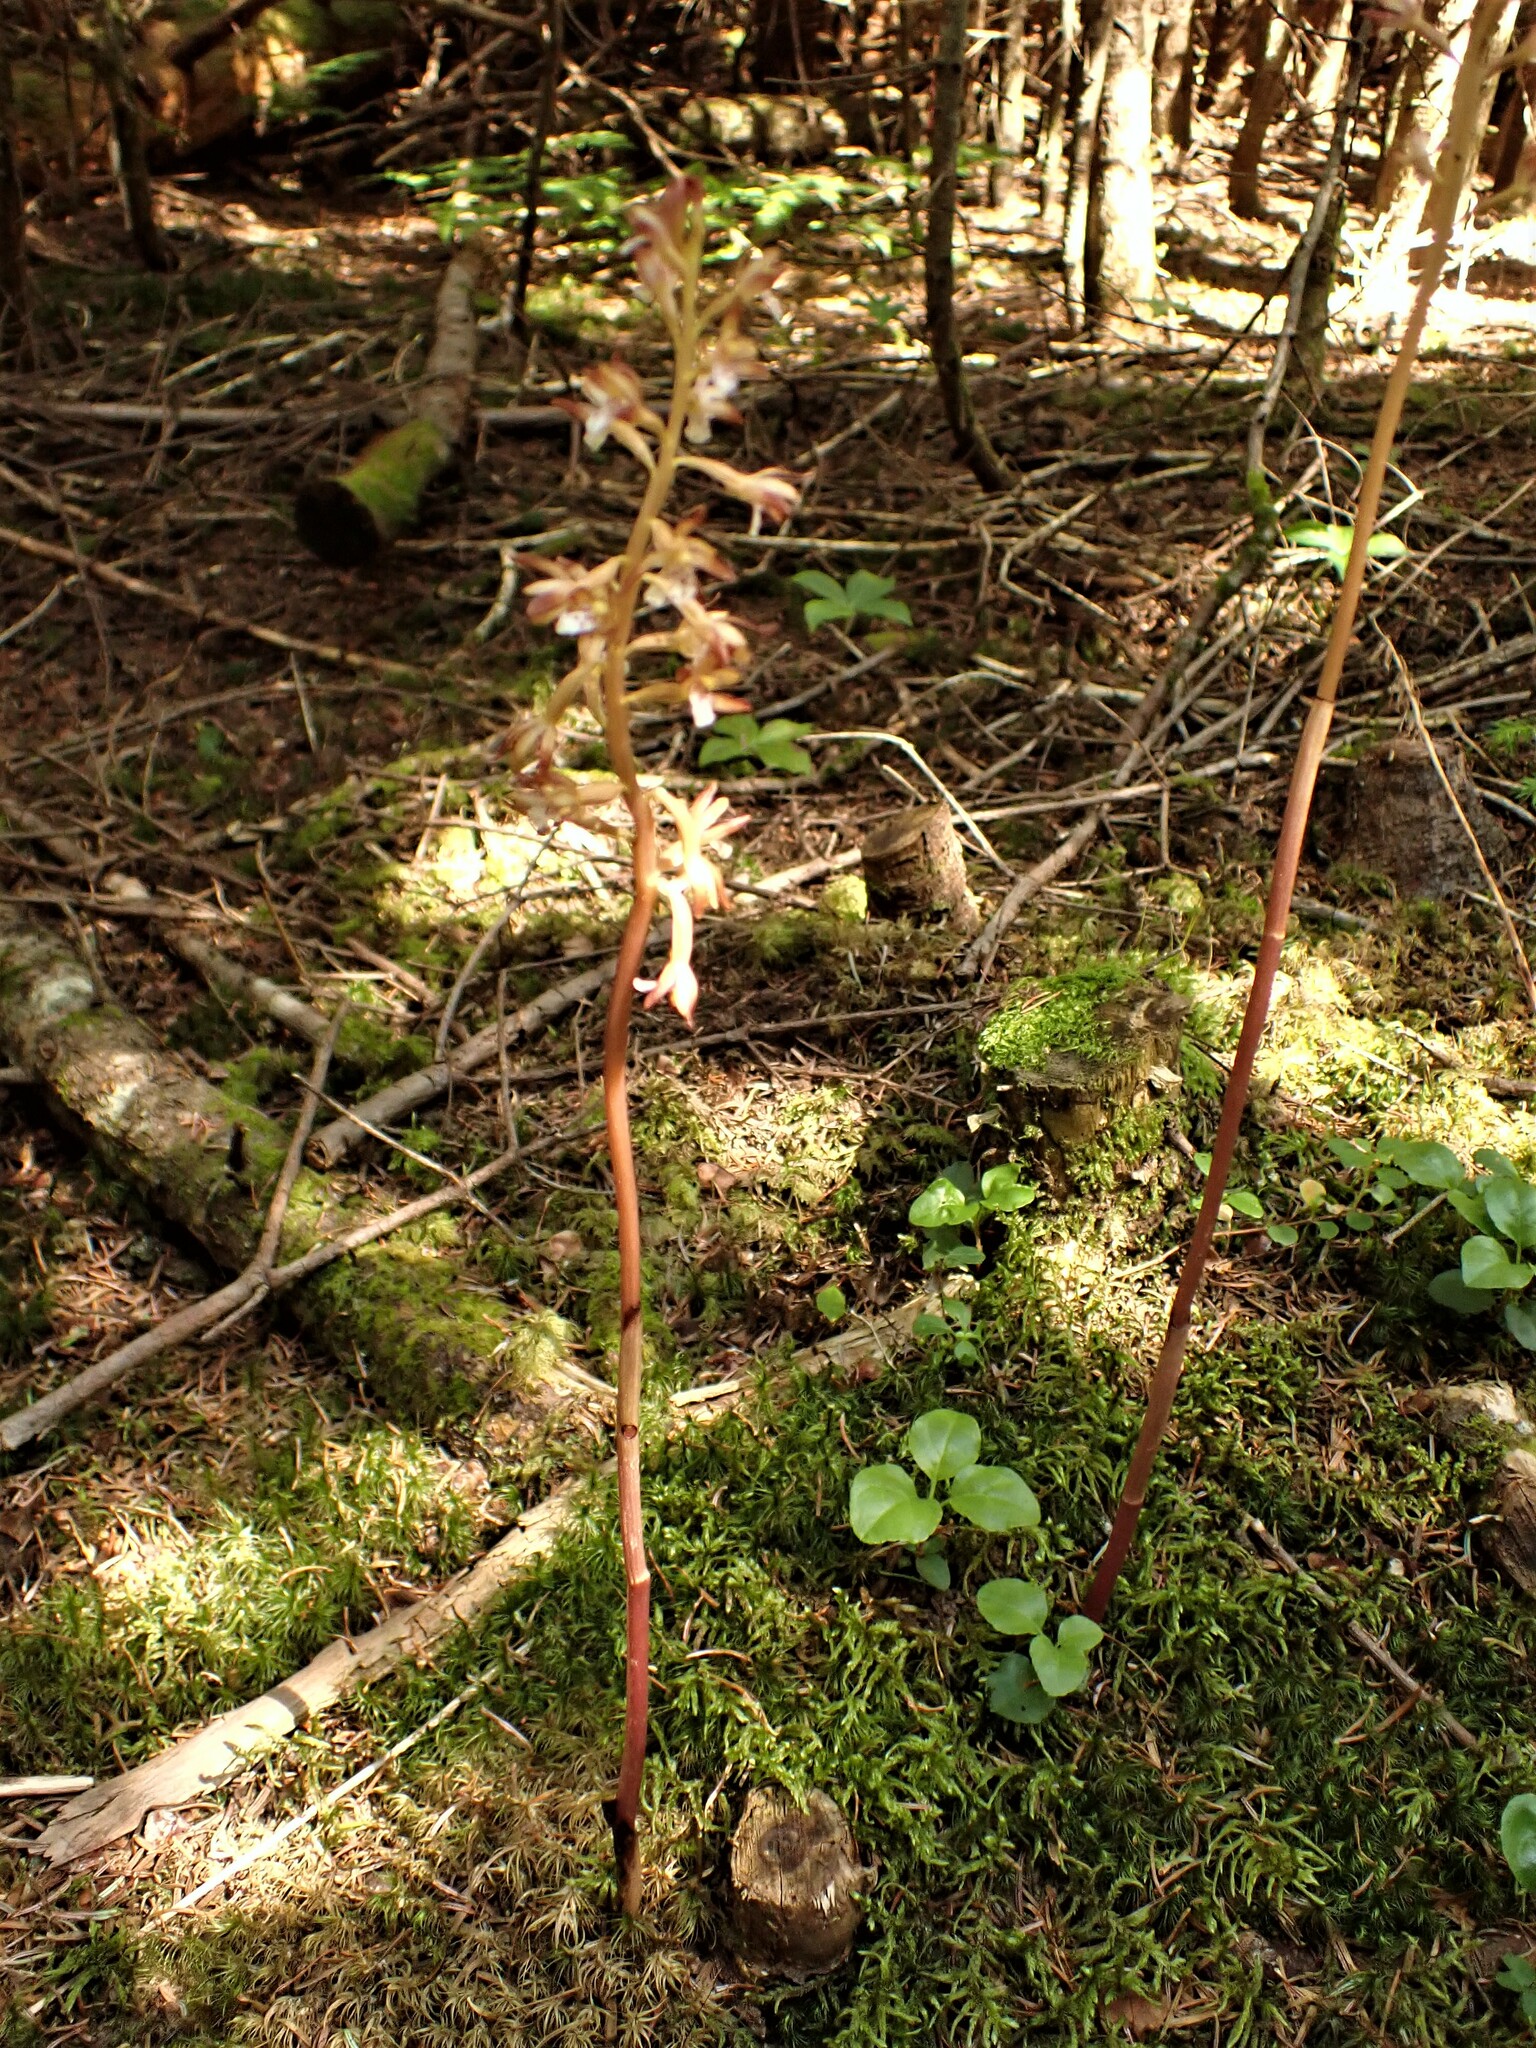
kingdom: Plantae
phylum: Tracheophyta
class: Liliopsida
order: Asparagales
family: Orchidaceae
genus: Corallorhiza
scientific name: Corallorhiza maculata
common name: Spotted coralroot
